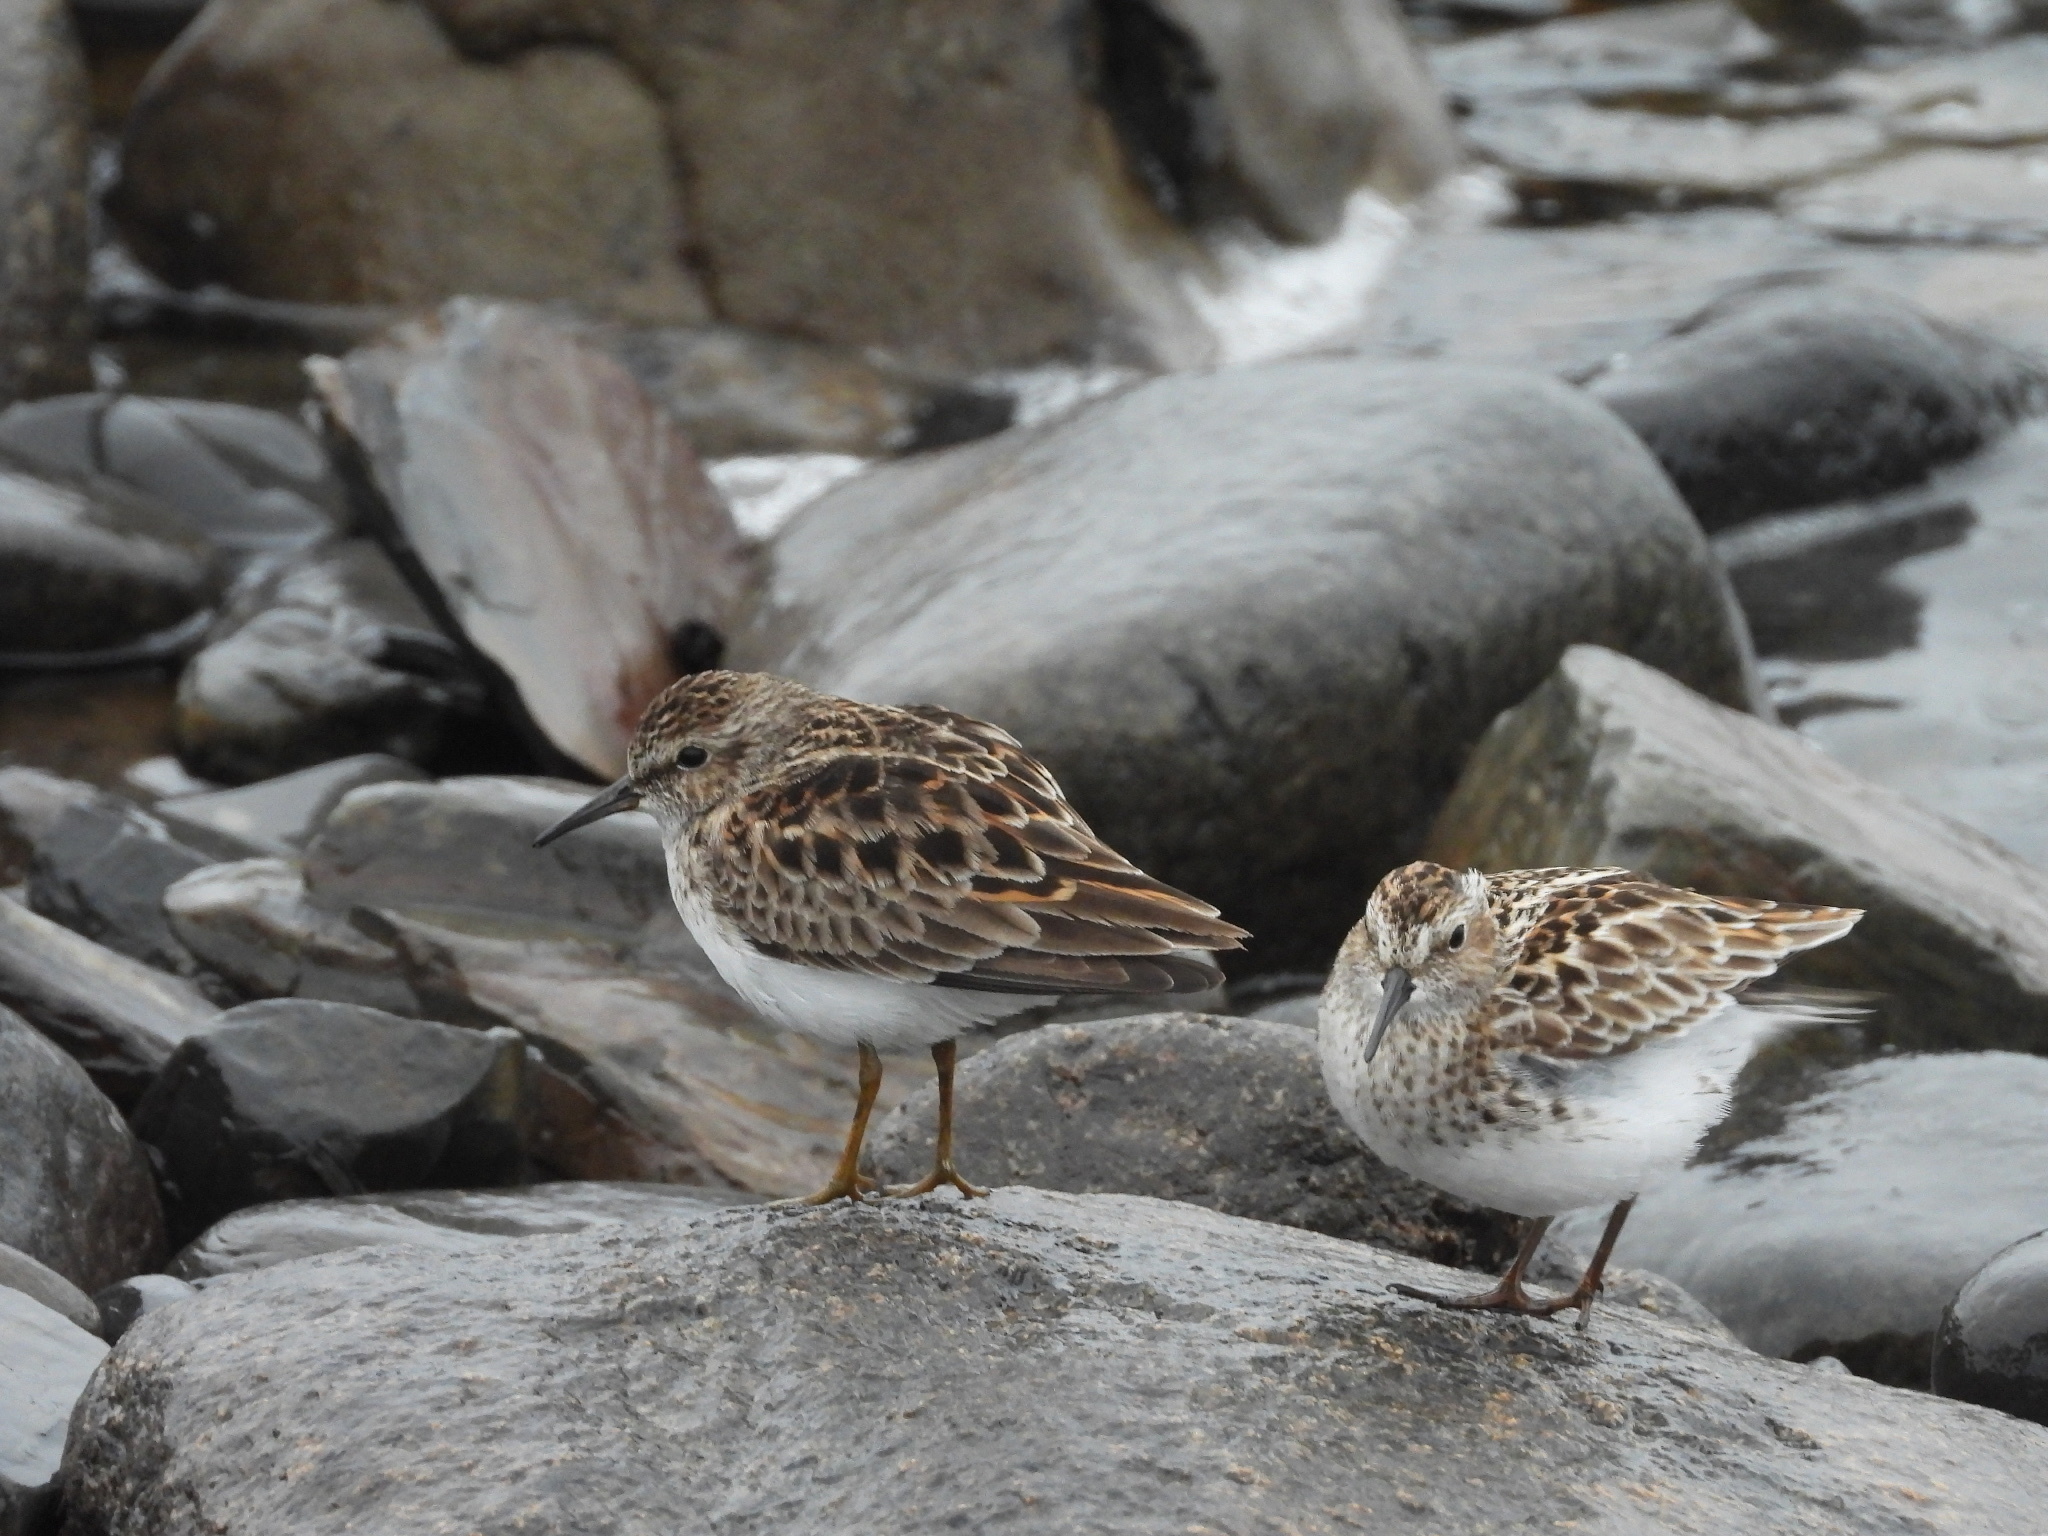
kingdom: Animalia
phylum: Chordata
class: Aves
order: Charadriiformes
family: Scolopacidae
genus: Calidris
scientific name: Calidris minutilla
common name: Least sandpiper
